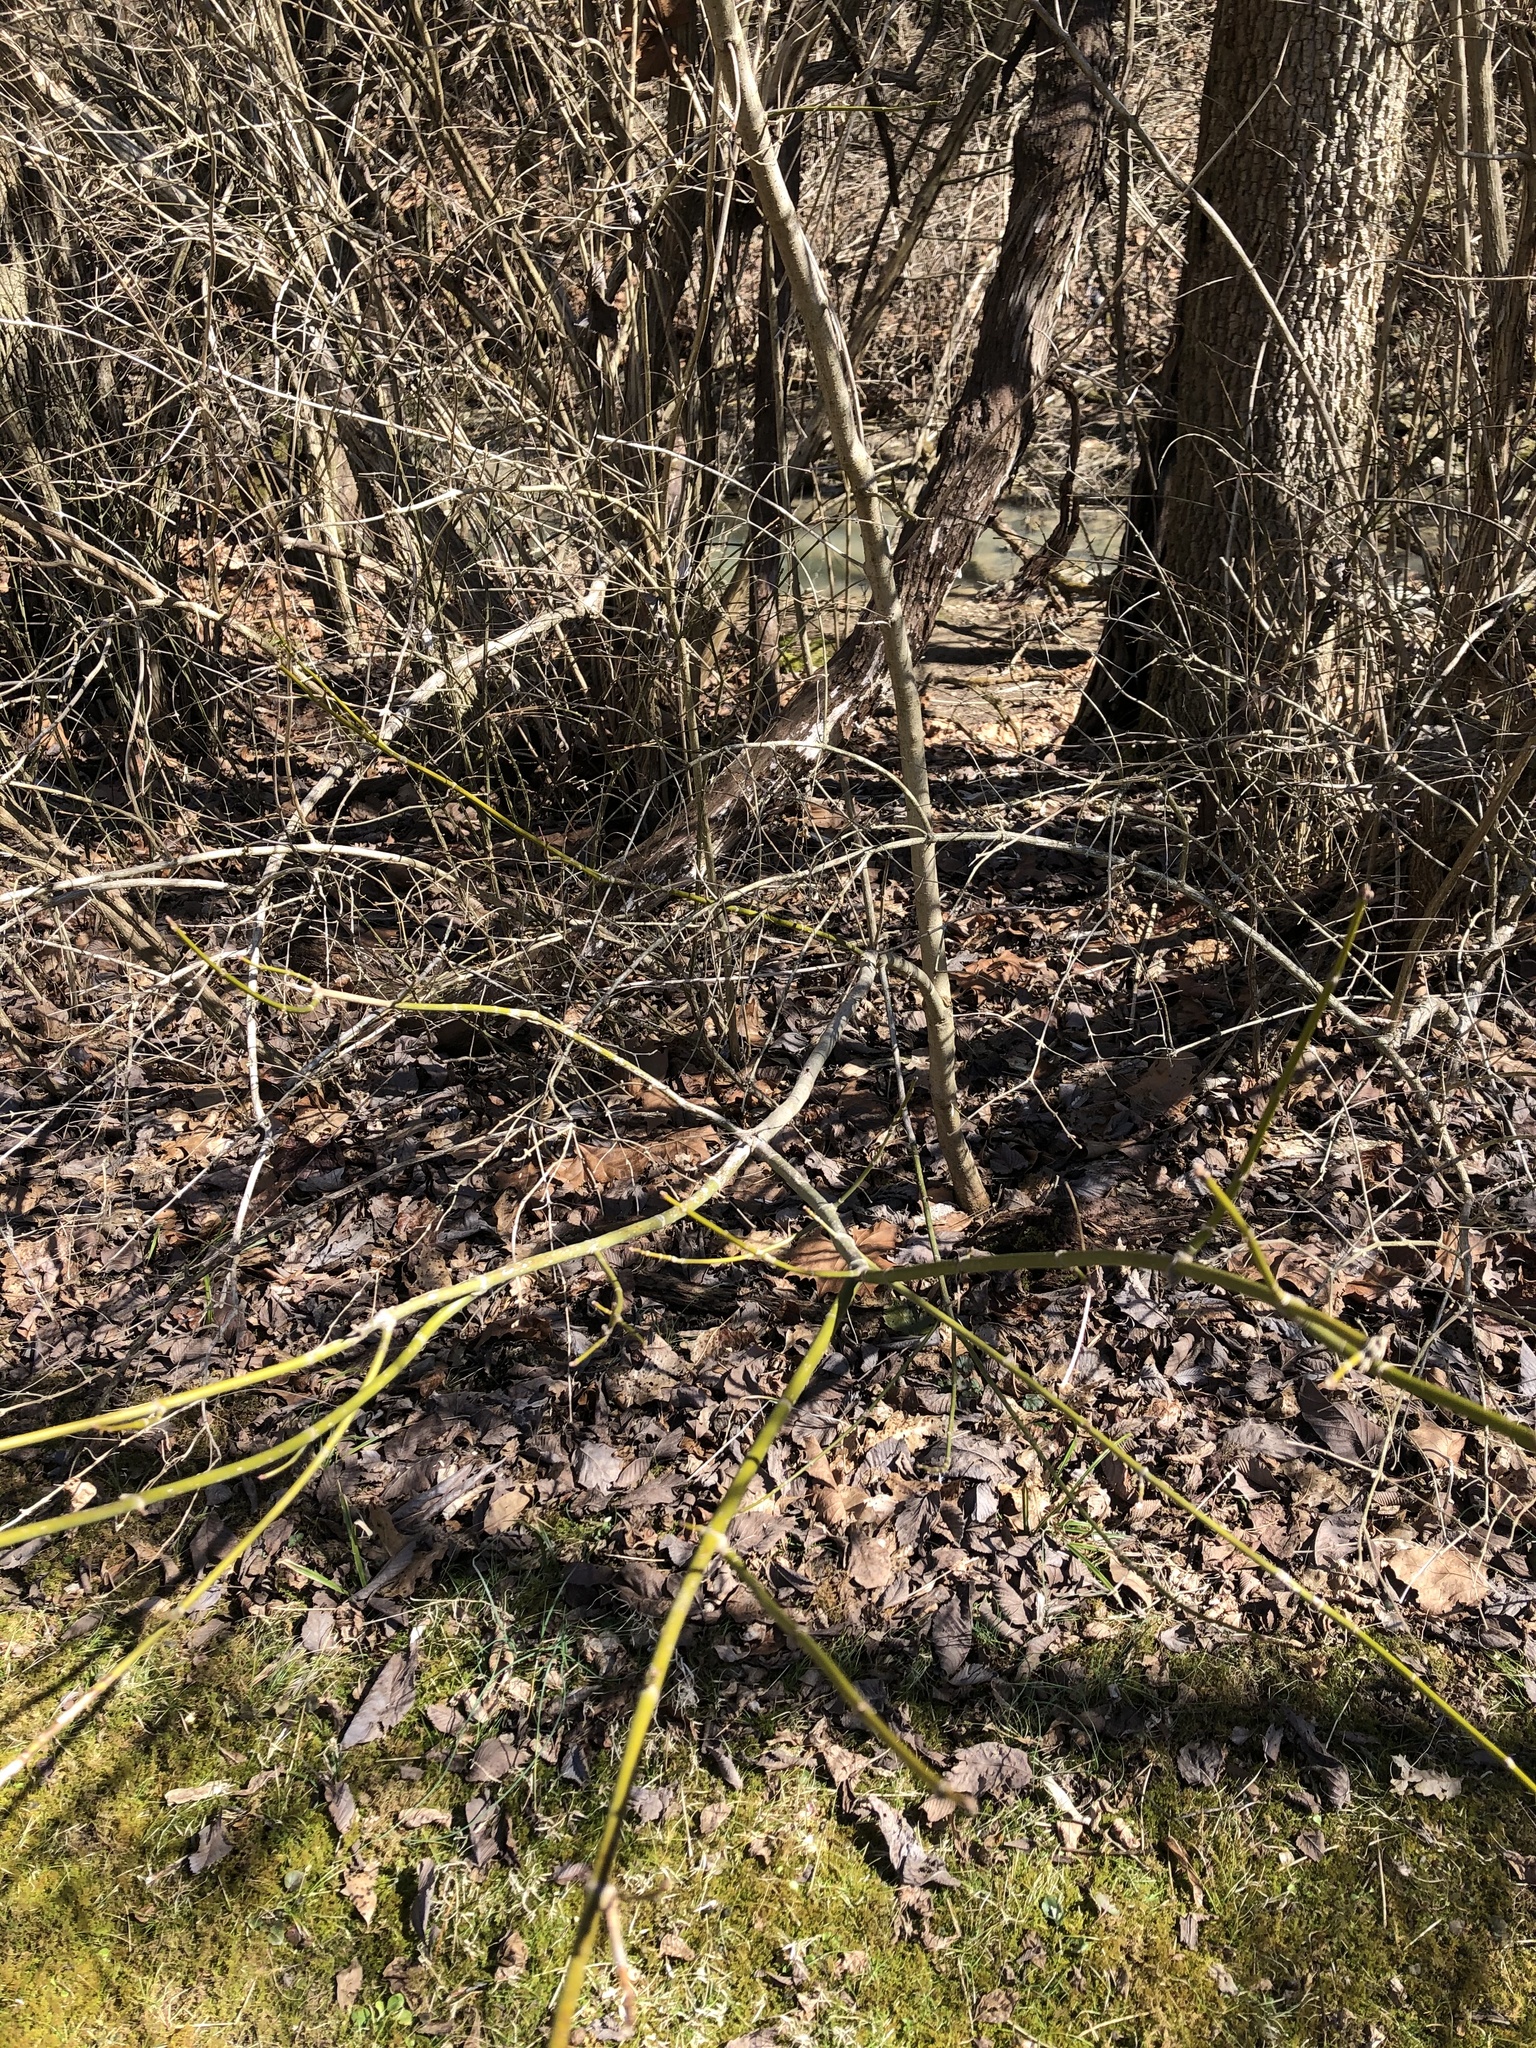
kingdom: Plantae
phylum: Tracheophyta
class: Magnoliopsida
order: Sapindales
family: Sapindaceae
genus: Acer
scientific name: Acer negundo
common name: Ashleaf maple
